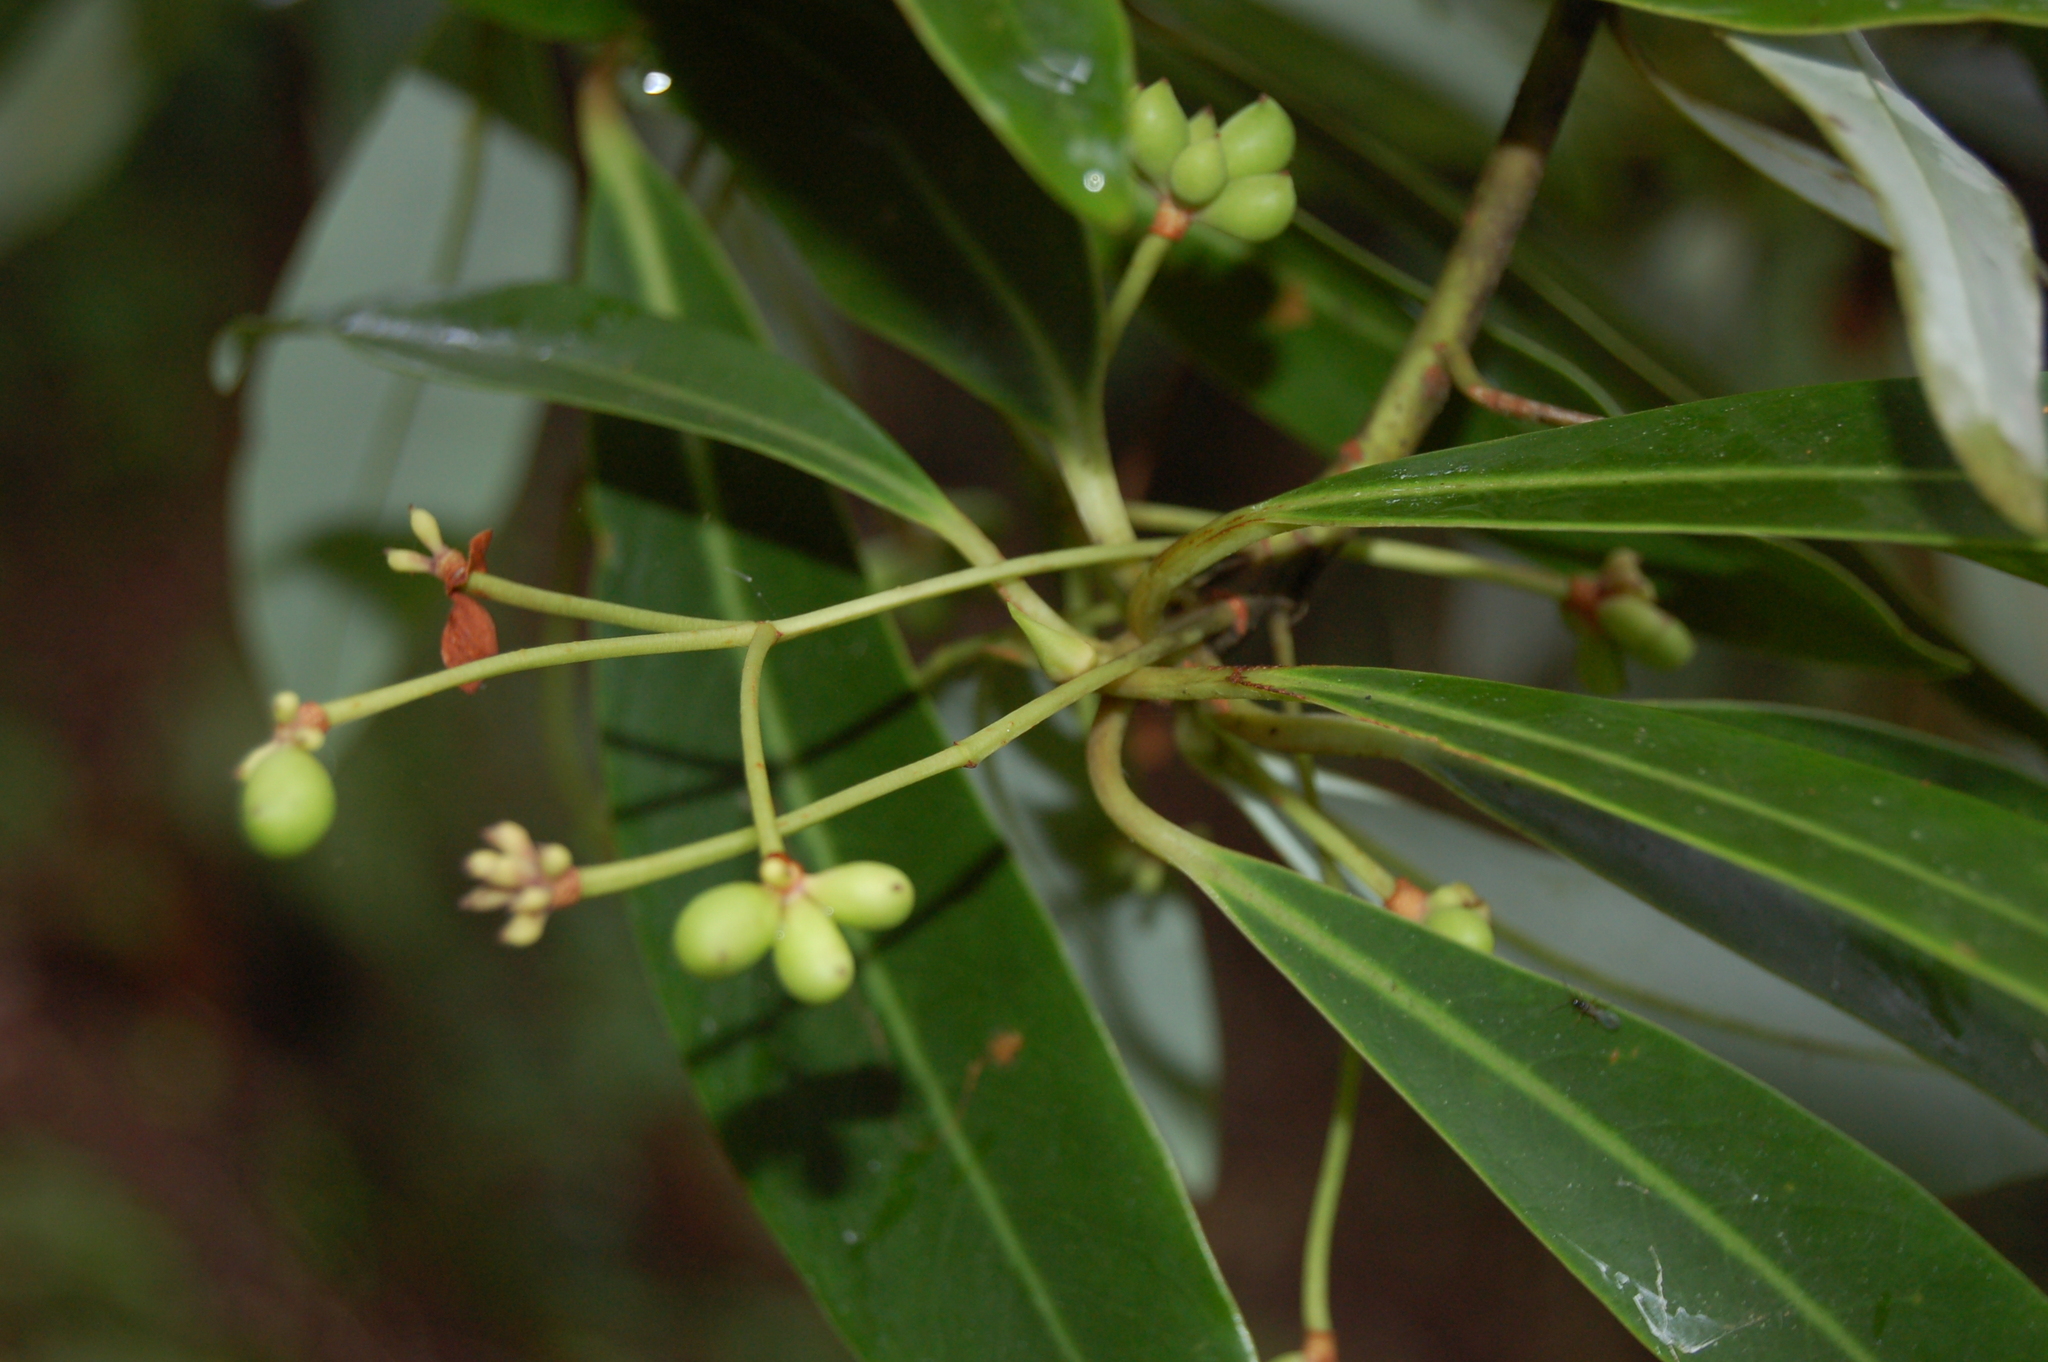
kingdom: Plantae
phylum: Tracheophyta
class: Magnoliopsida
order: Canellales
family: Winteraceae
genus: Drimys
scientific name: Drimys granadensis
